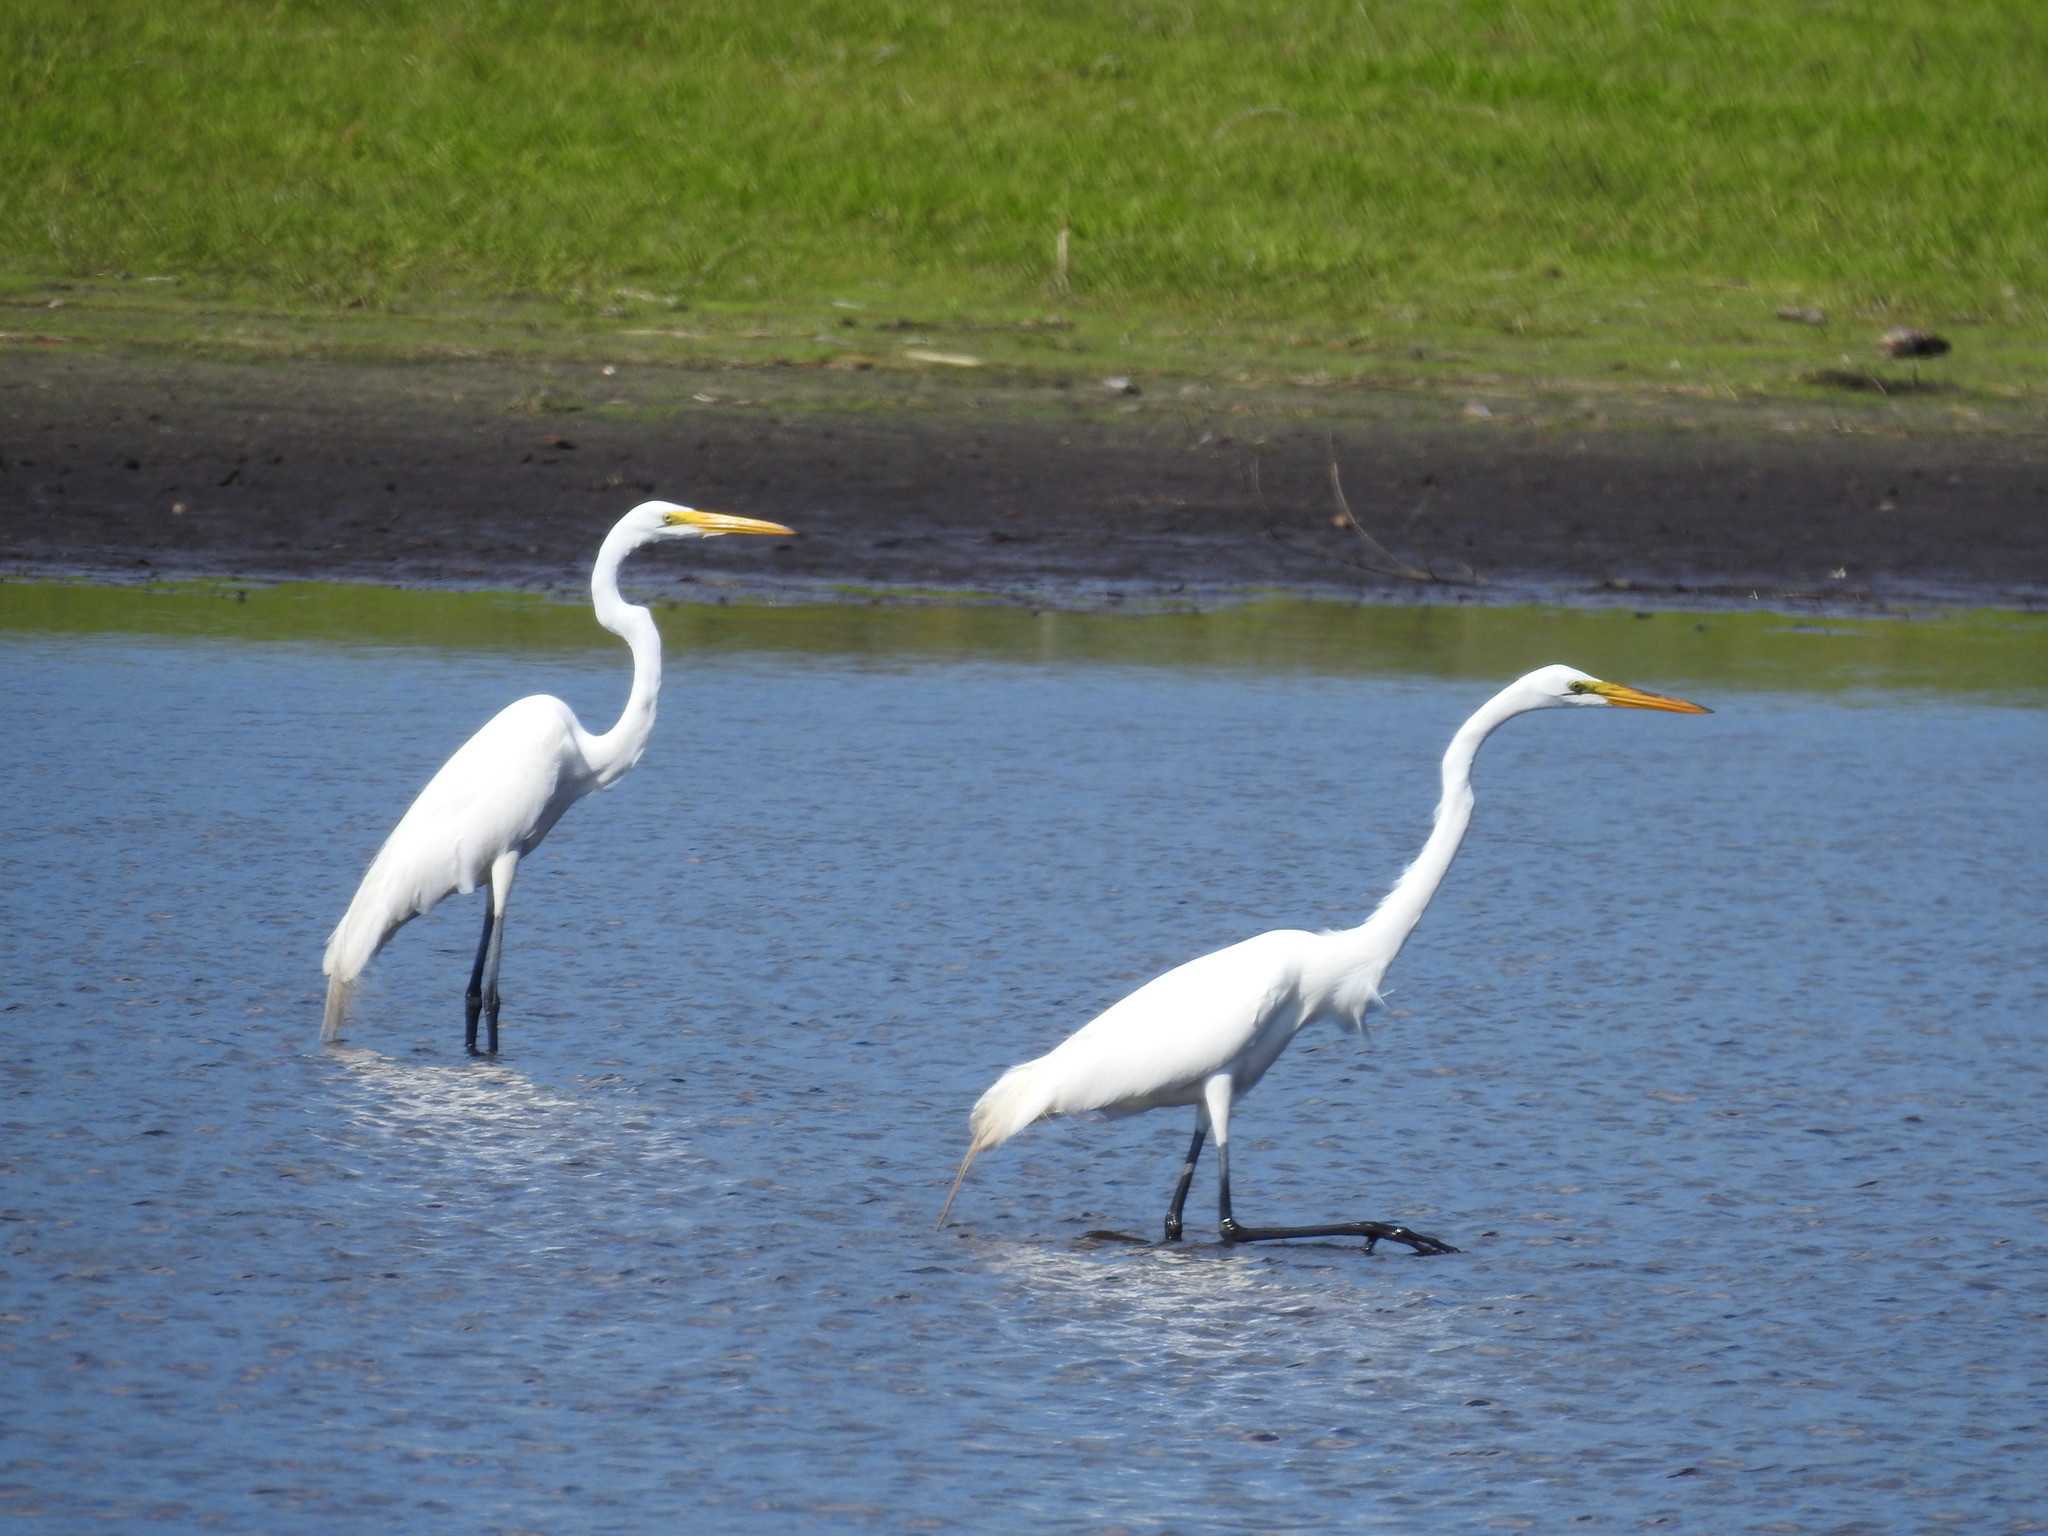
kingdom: Animalia
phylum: Chordata
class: Aves
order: Pelecaniformes
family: Ardeidae
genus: Ardea
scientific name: Ardea alba
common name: Great egret
